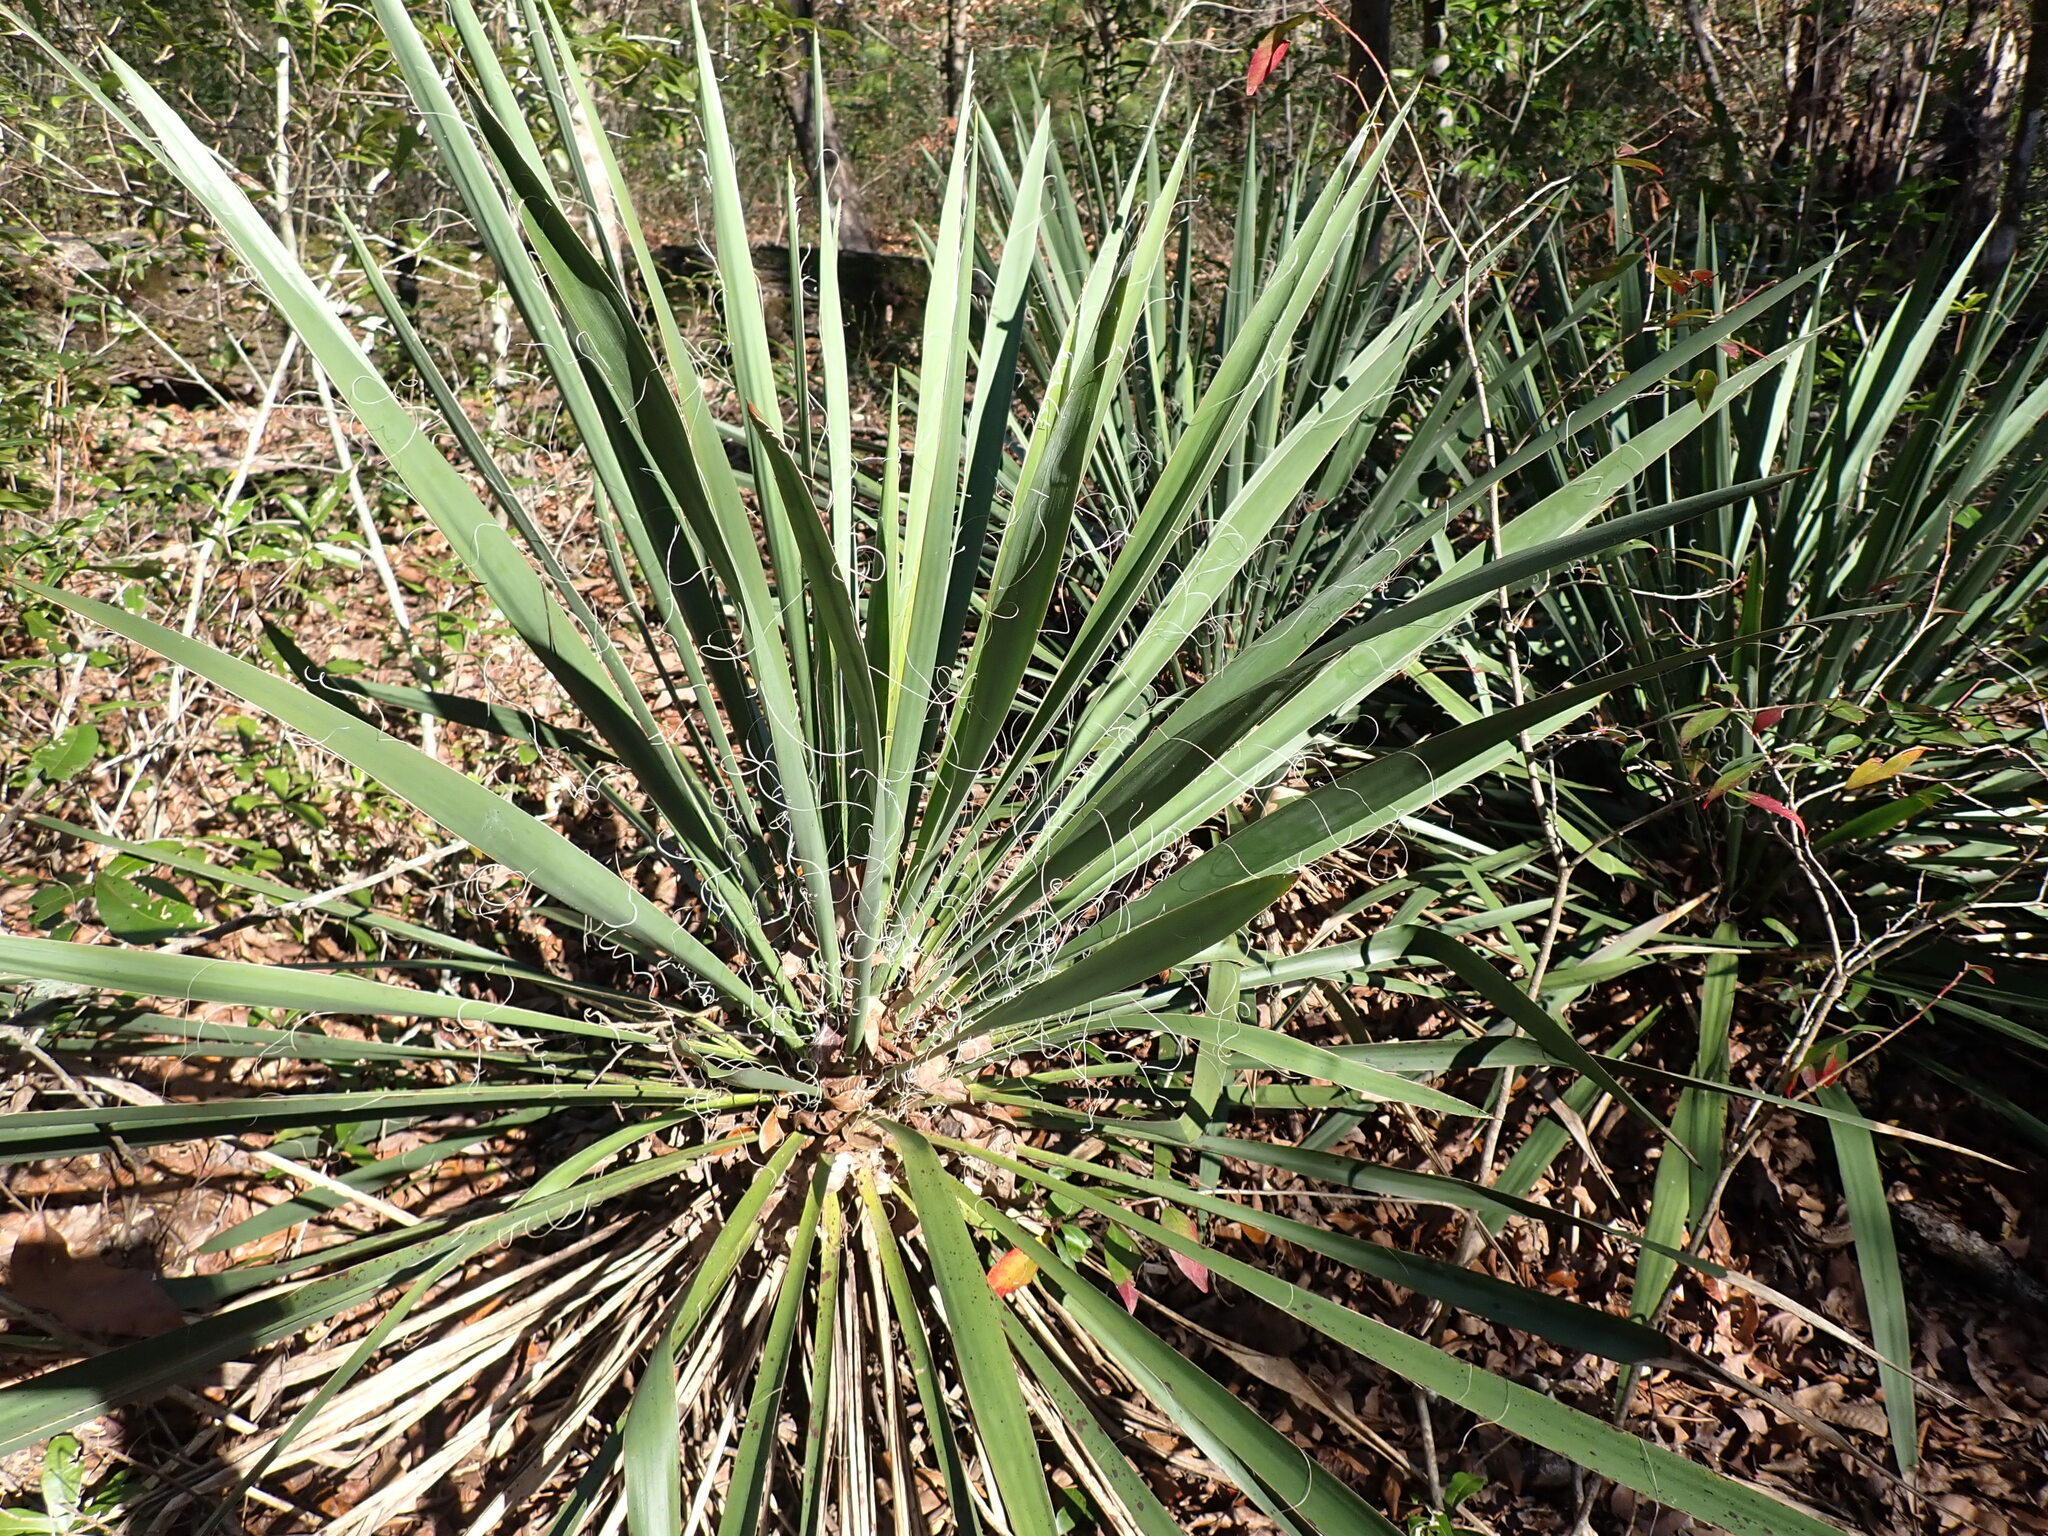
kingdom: Plantae
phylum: Tracheophyta
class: Liliopsida
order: Asparagales
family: Asparagaceae
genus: Yucca
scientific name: Yucca filamentosa
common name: Adam's-needle
